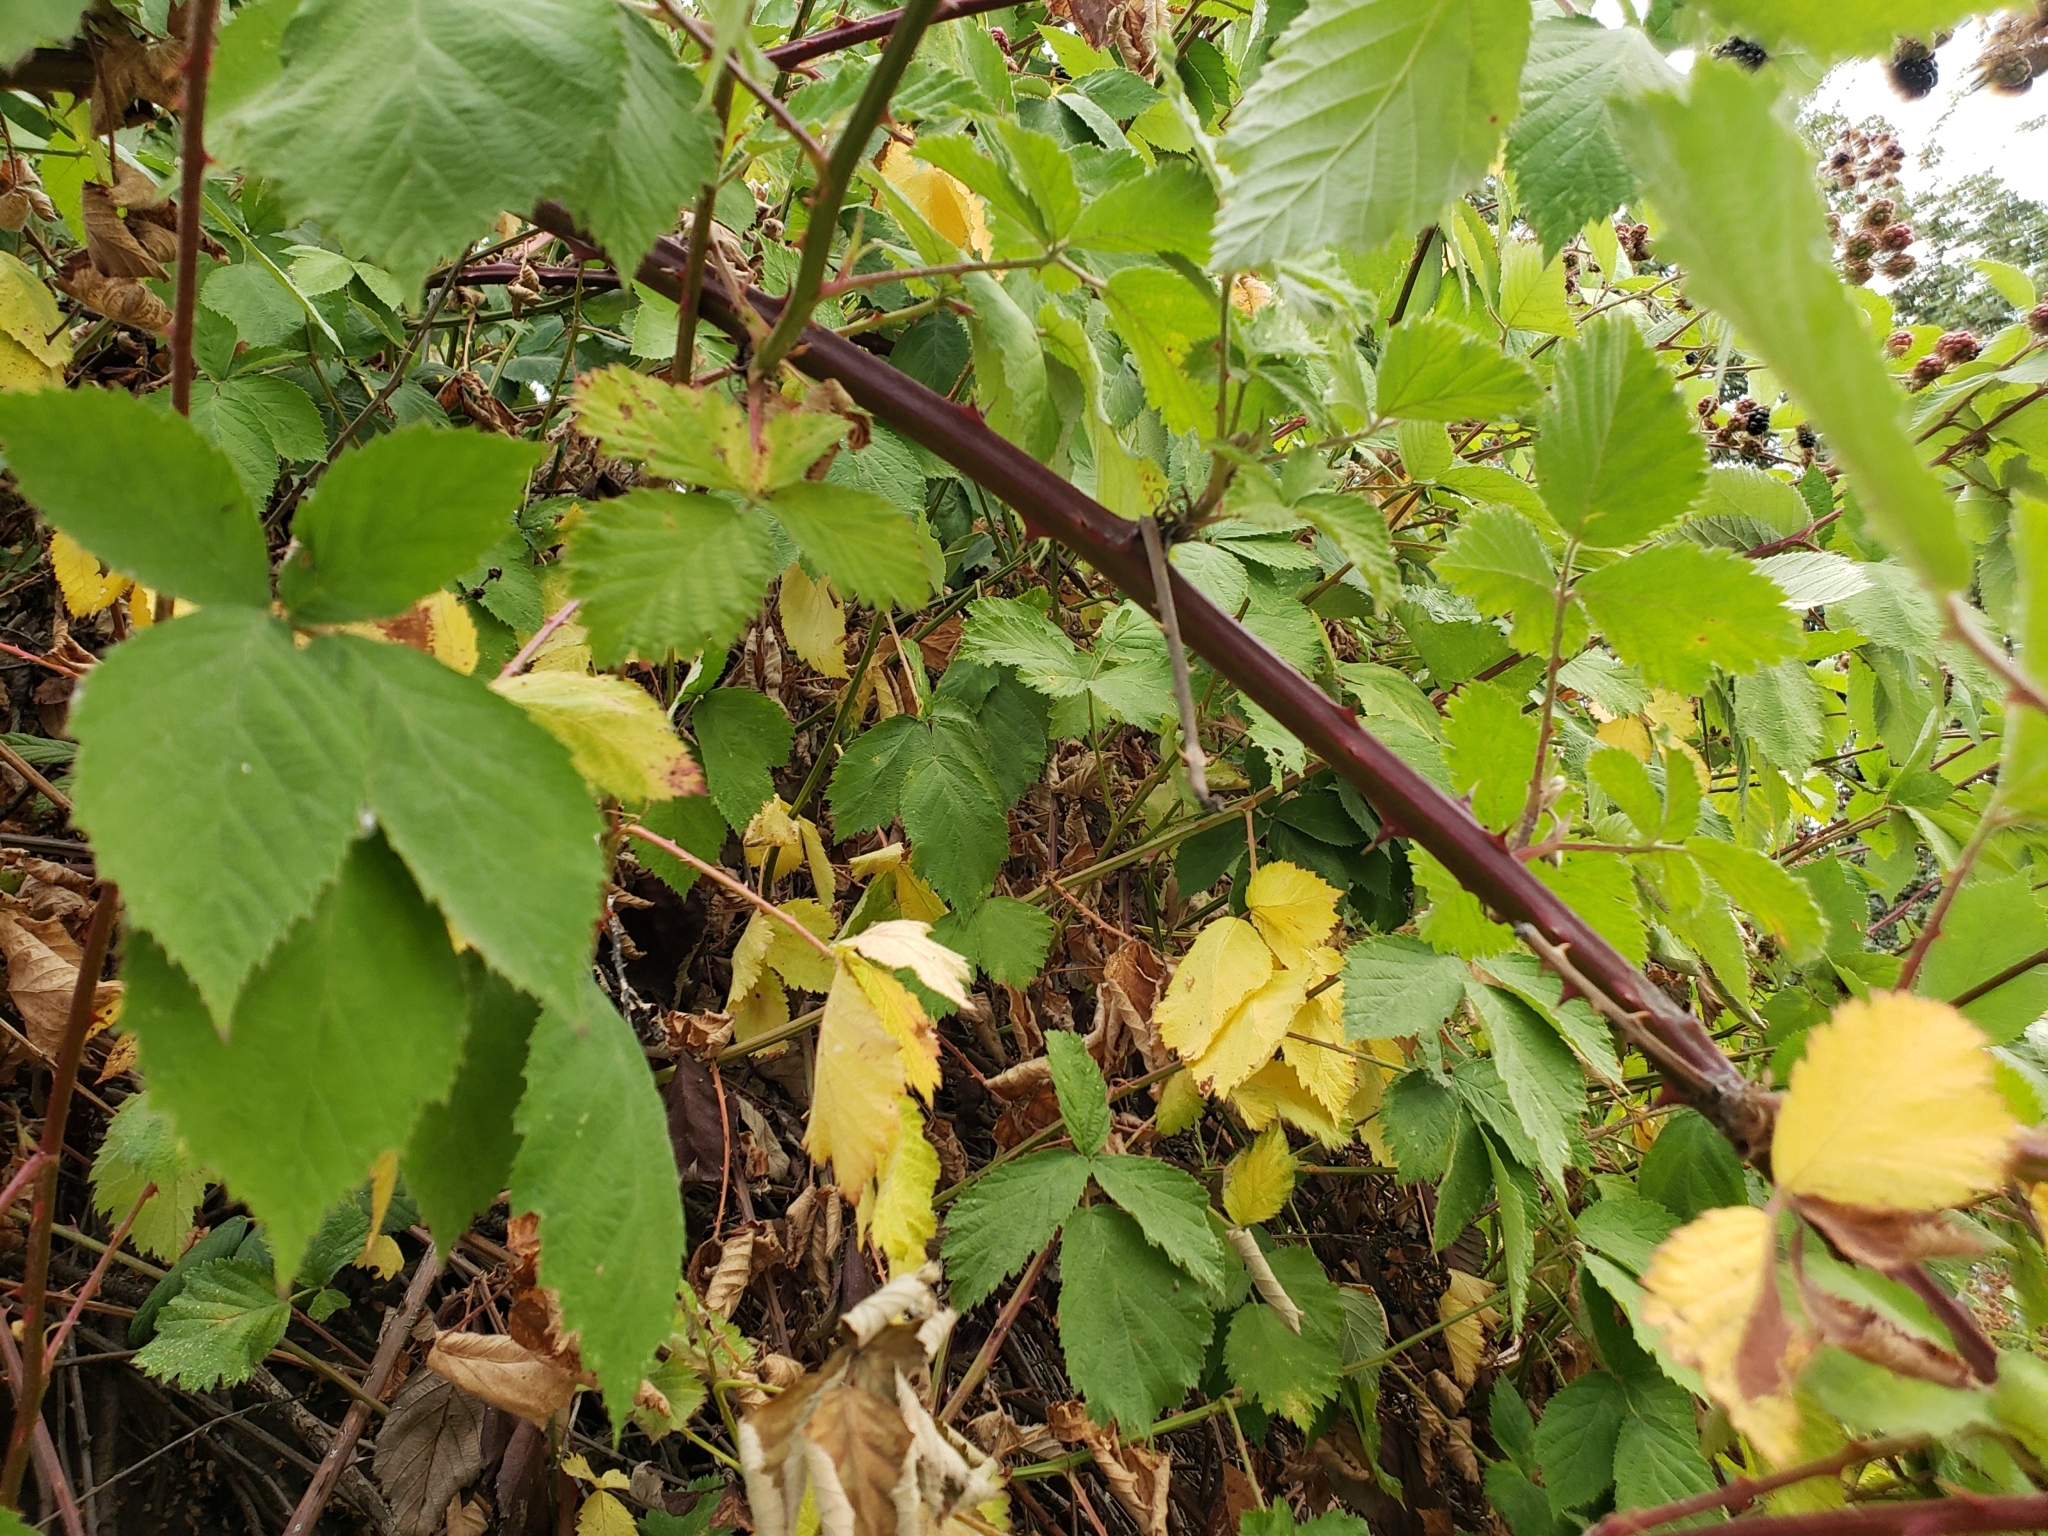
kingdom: Plantae
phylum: Tracheophyta
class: Magnoliopsida
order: Rosales
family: Rosaceae
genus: Rubus
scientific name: Rubus bifrons
